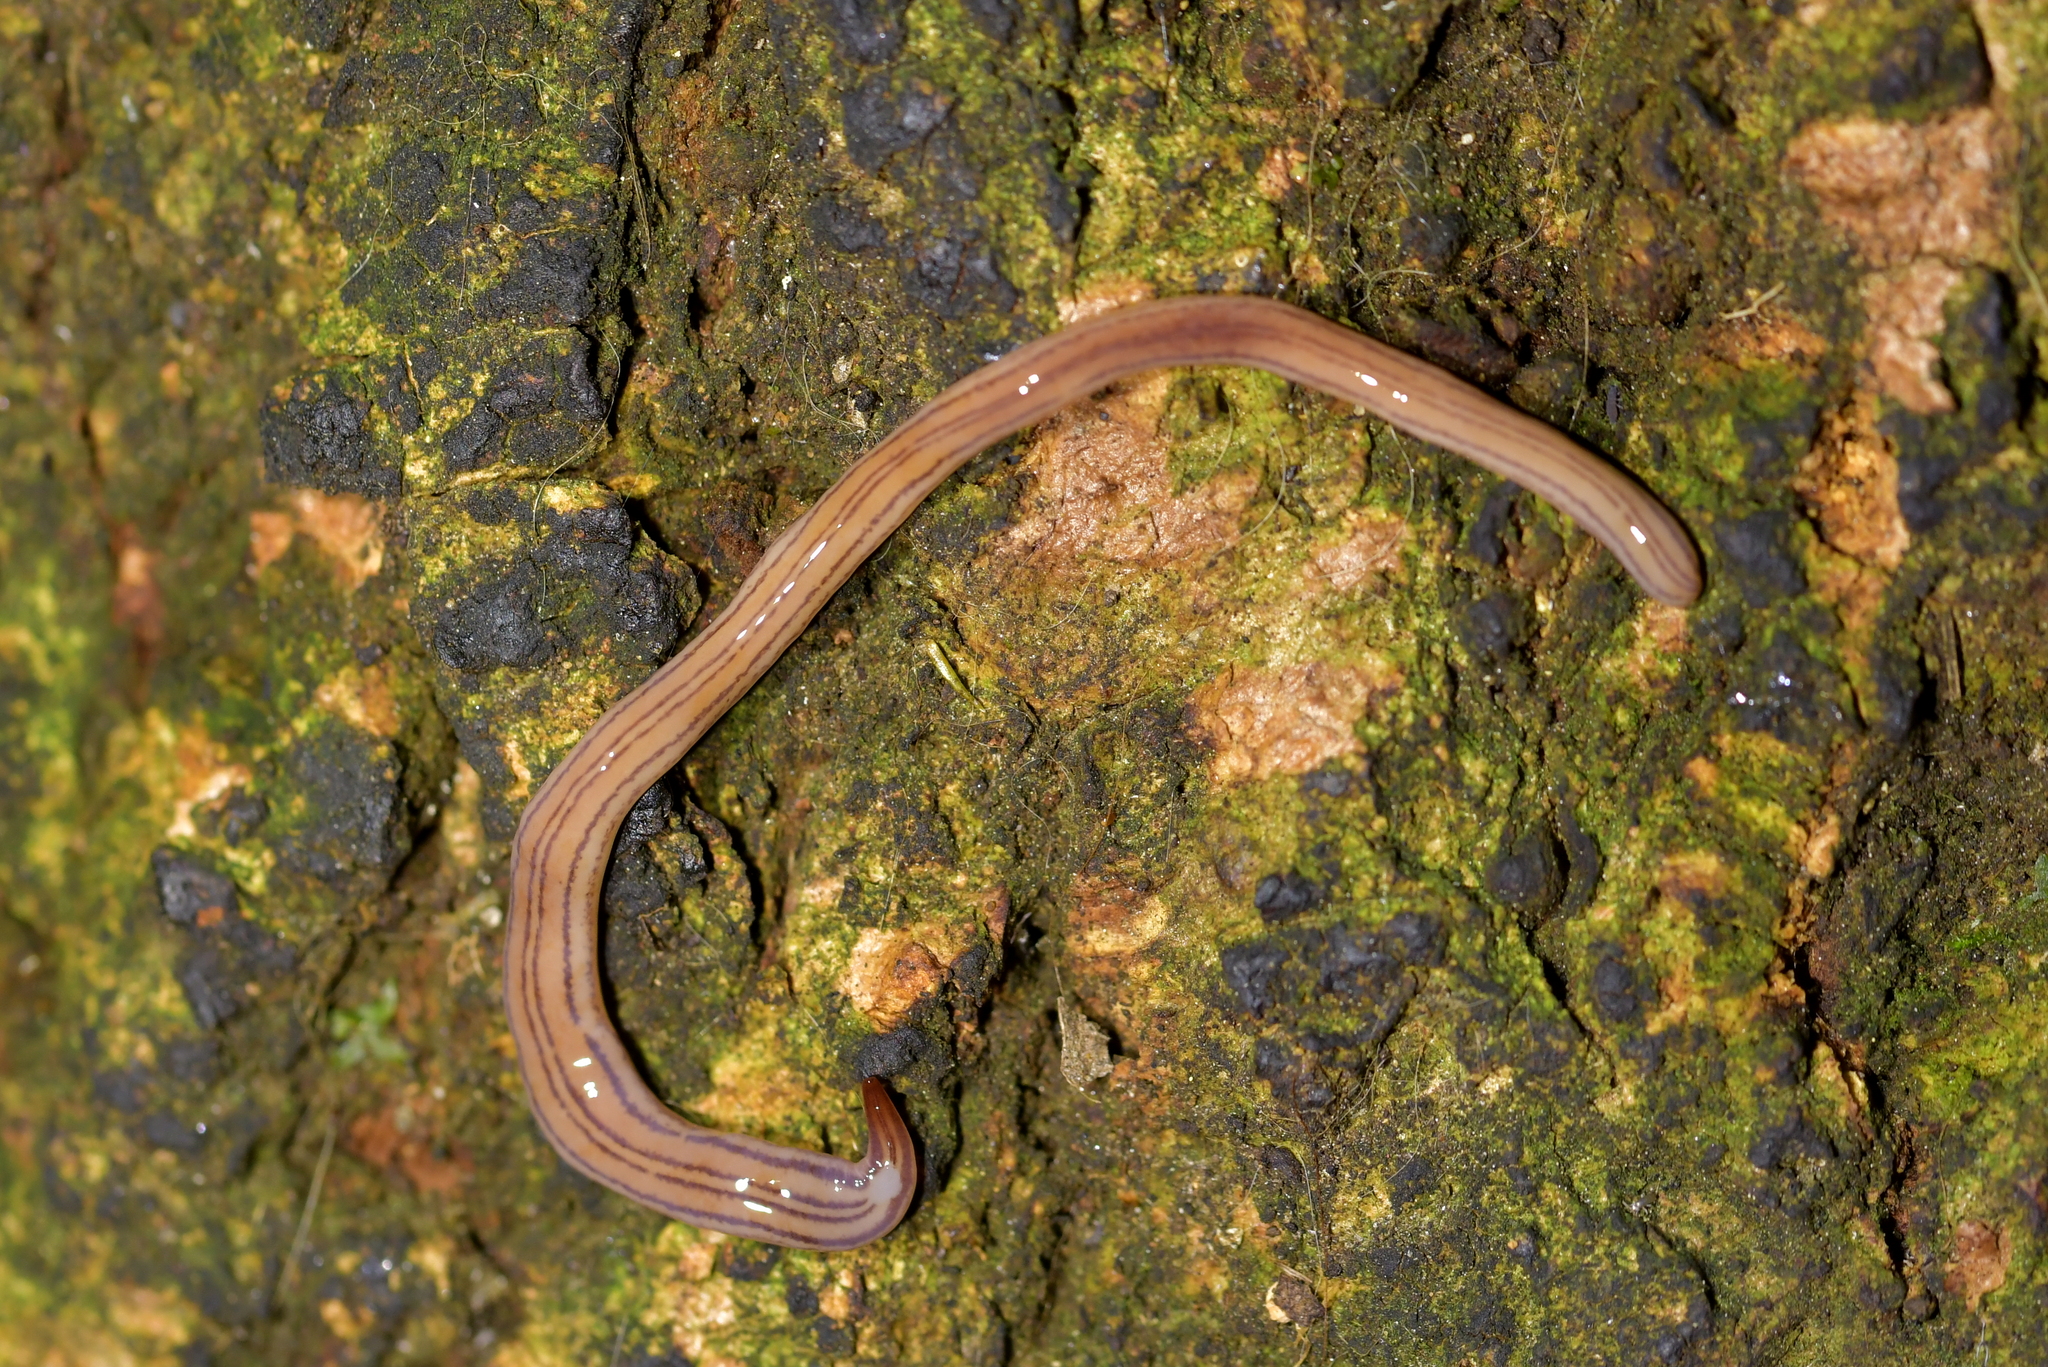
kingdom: Animalia
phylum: Platyhelminthes
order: Tricladida
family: Geoplanidae
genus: Artioposthia
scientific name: Artioposthia suteri
